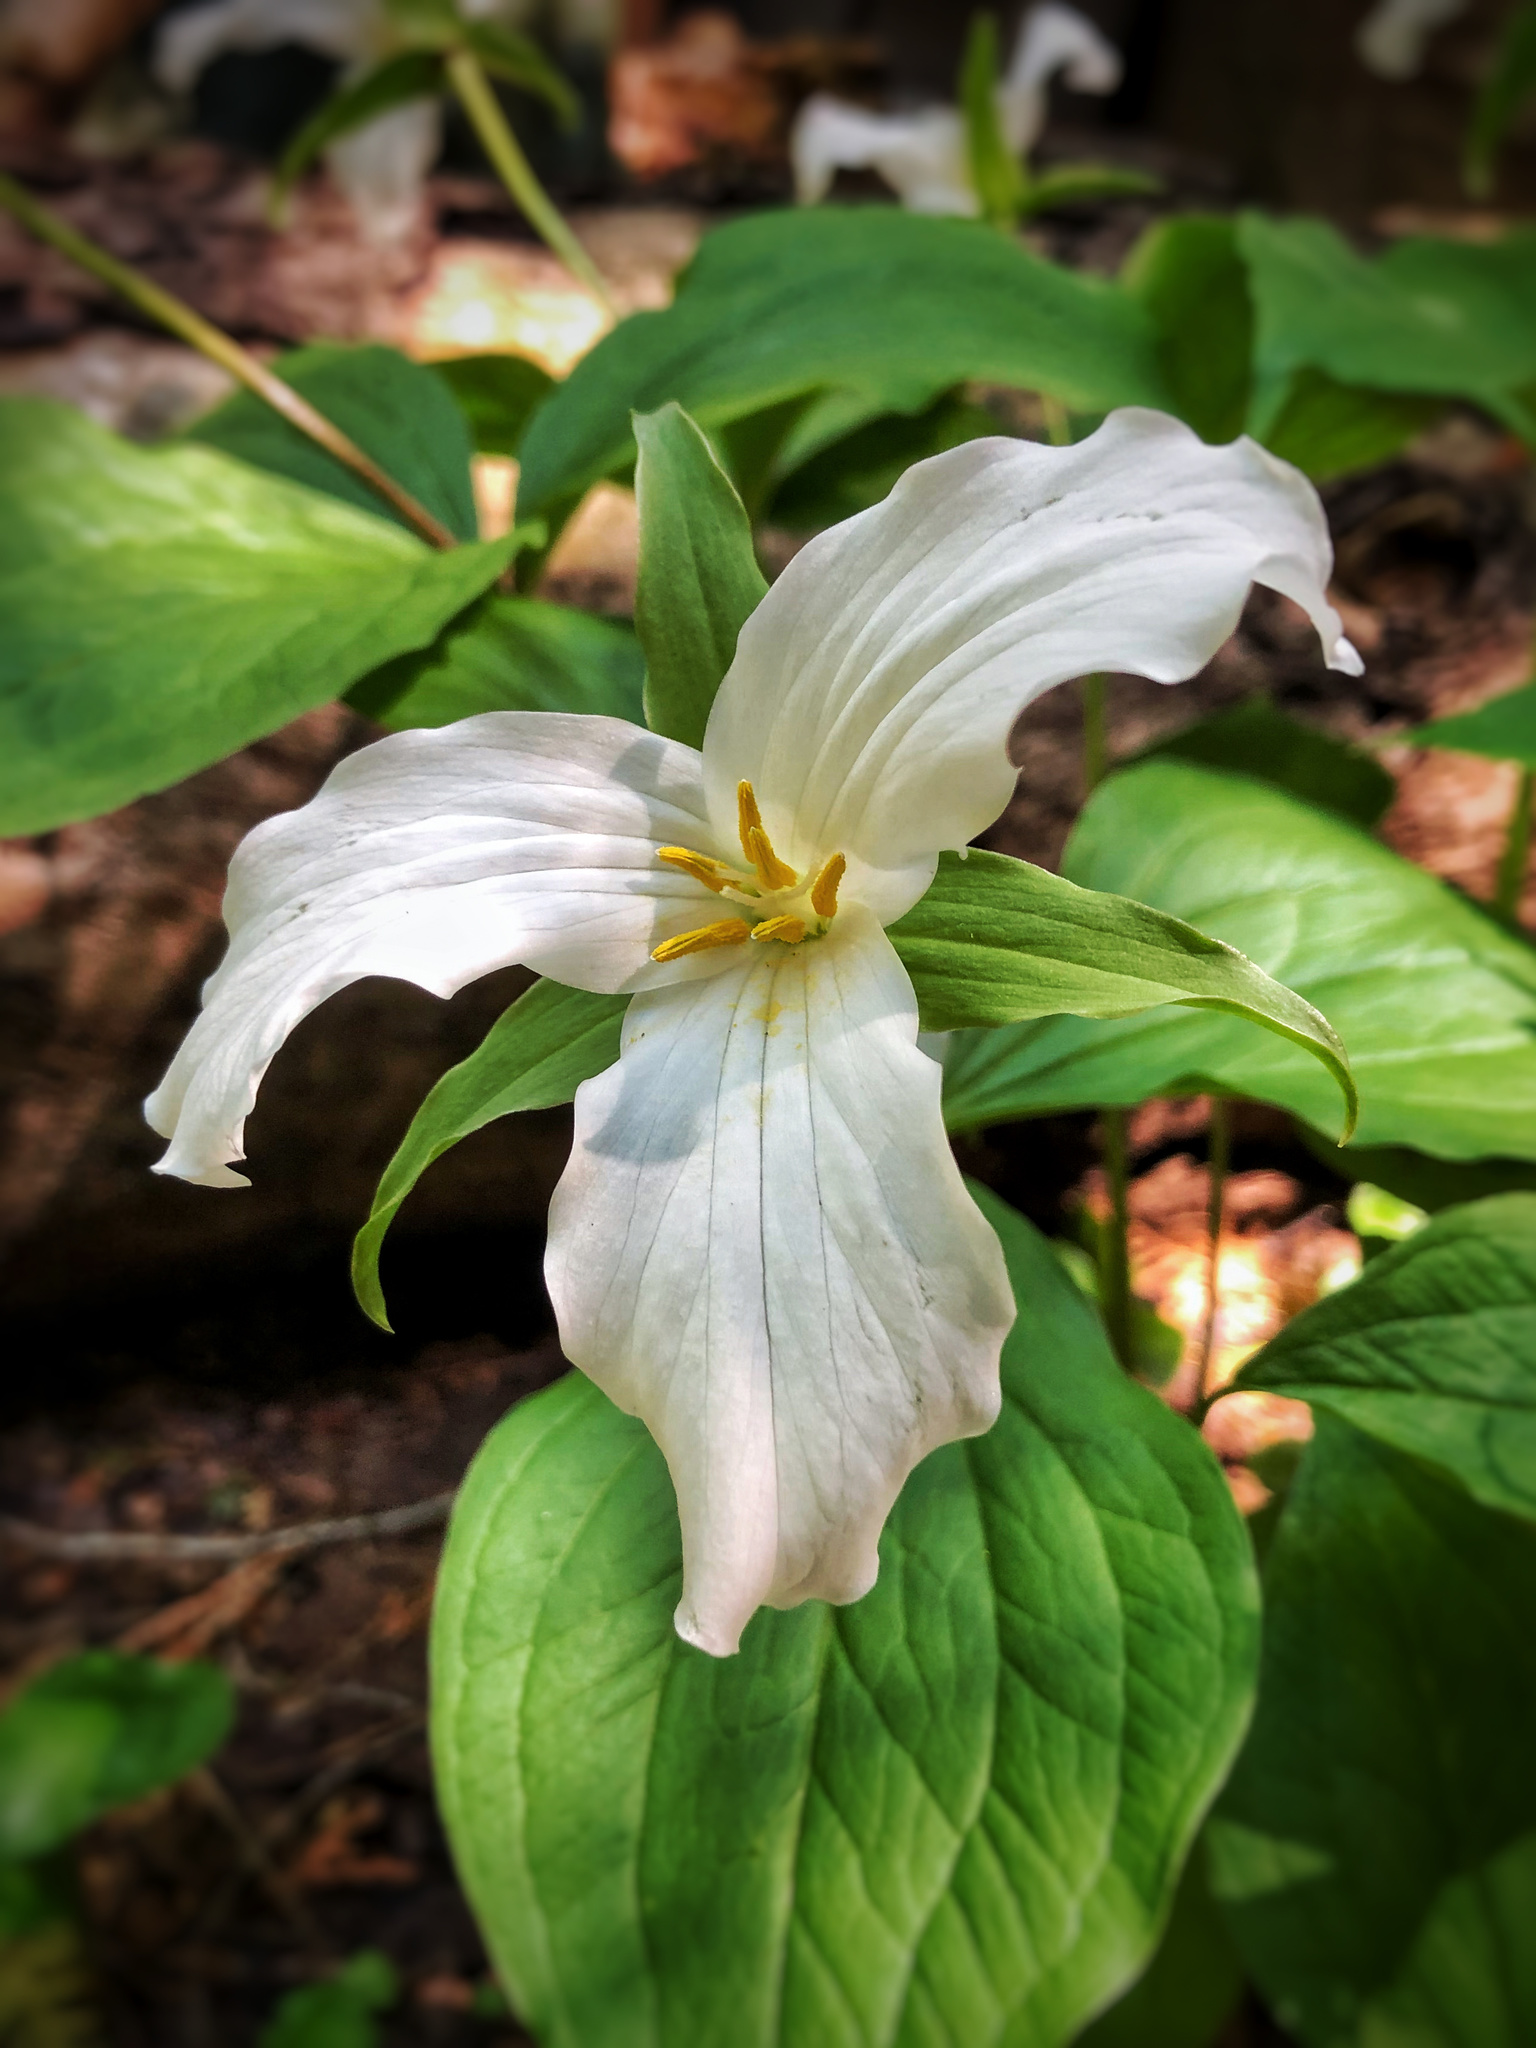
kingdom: Plantae
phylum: Tracheophyta
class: Liliopsida
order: Liliales
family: Melanthiaceae
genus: Trillium
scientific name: Trillium grandiflorum
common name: Great white trillium
